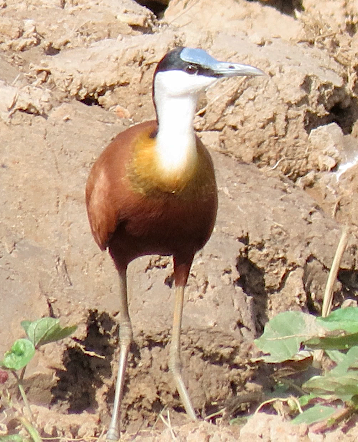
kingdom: Animalia
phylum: Chordata
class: Aves
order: Charadriiformes
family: Jacanidae
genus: Actophilornis
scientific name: Actophilornis africanus
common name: African jacana
